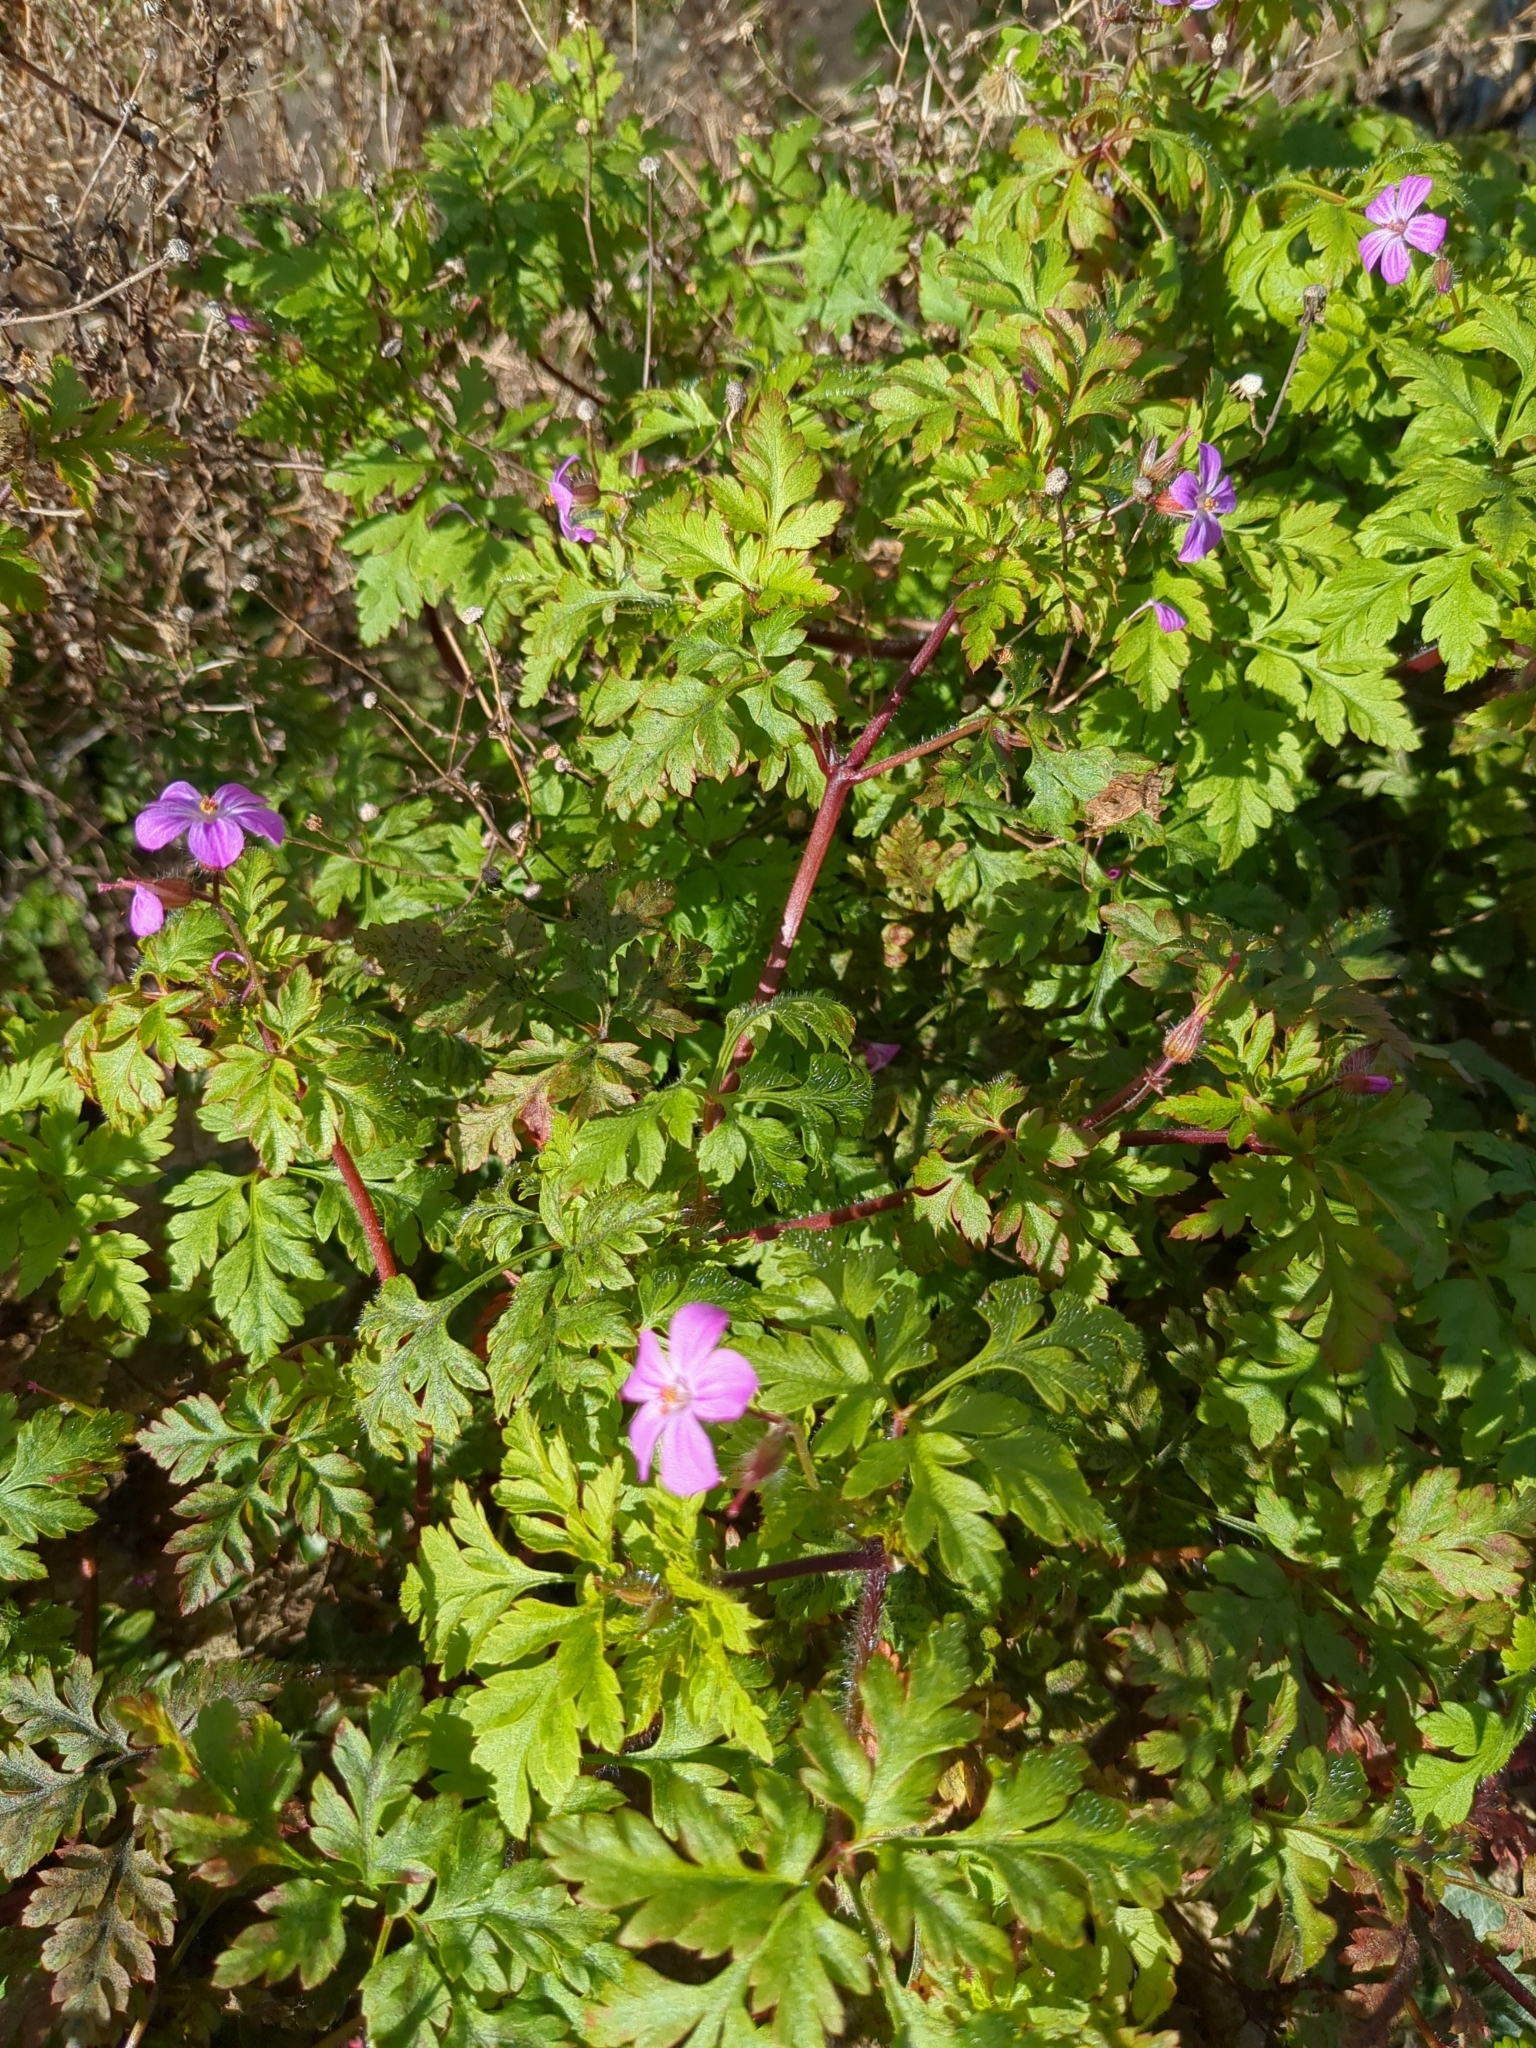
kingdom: Plantae
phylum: Tracheophyta
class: Magnoliopsida
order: Geraniales
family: Geraniaceae
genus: Geranium
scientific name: Geranium robertianum
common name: Herb-robert
